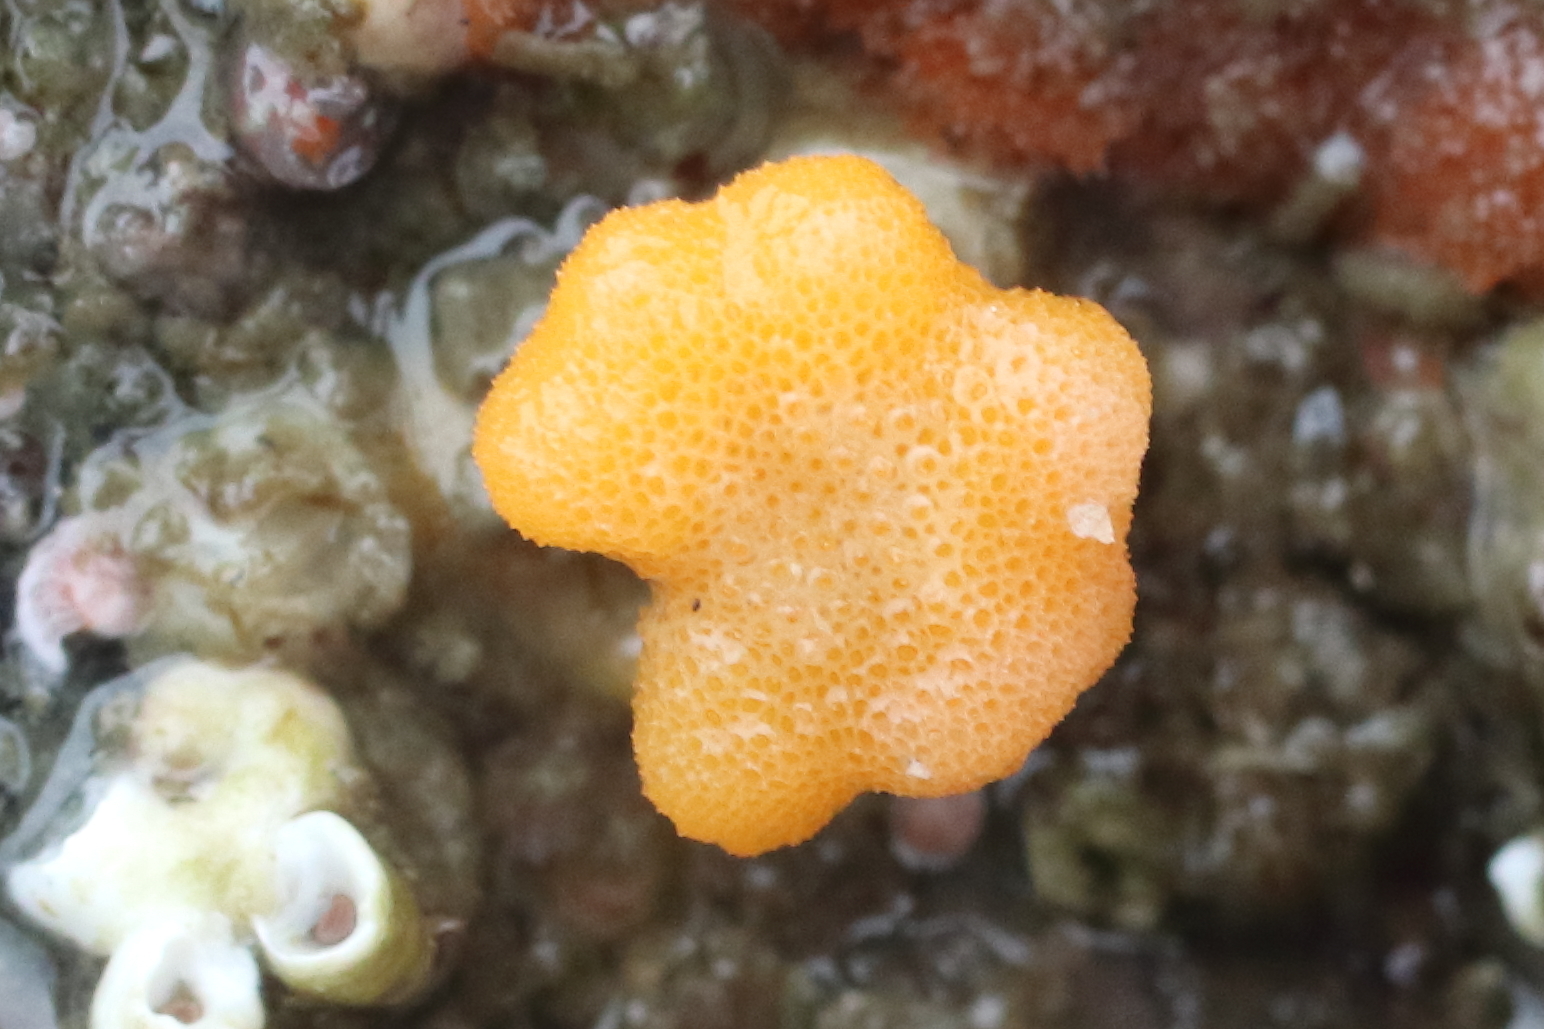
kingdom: Animalia
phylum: Bryozoa
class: Stenolaemata
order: Cyclostomatida
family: Heteroporidae
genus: Heteropora
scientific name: Heteropora pacifica
